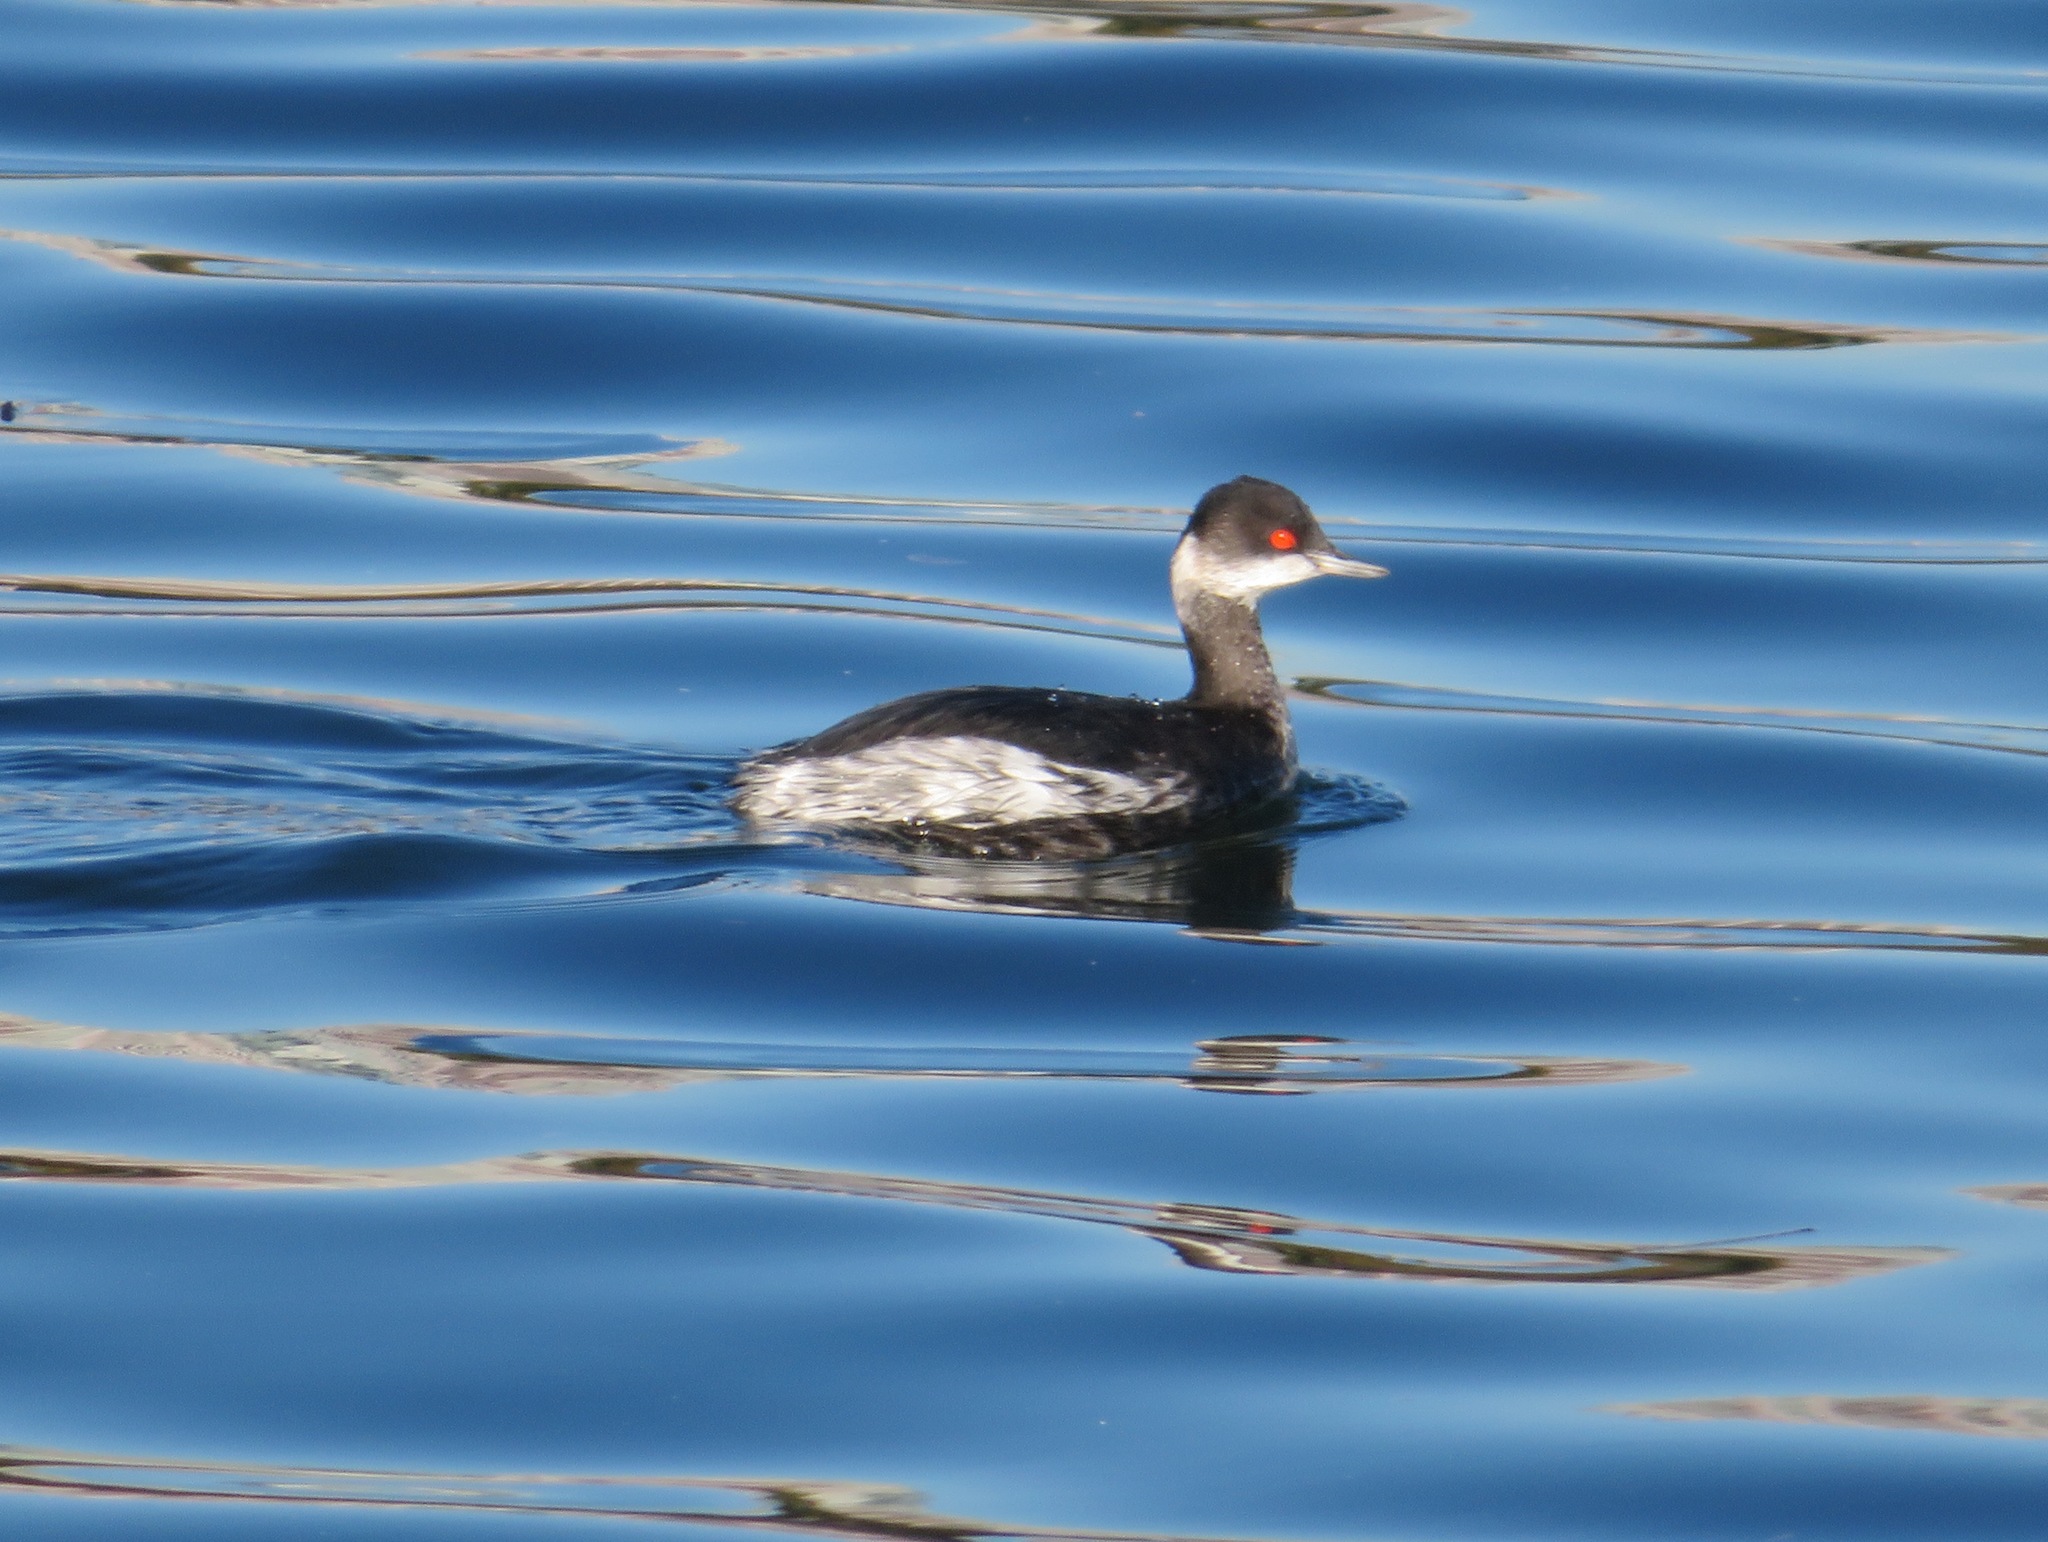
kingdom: Animalia
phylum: Chordata
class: Aves
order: Podicipediformes
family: Podicipedidae
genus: Podiceps
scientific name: Podiceps nigricollis
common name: Black-necked grebe
